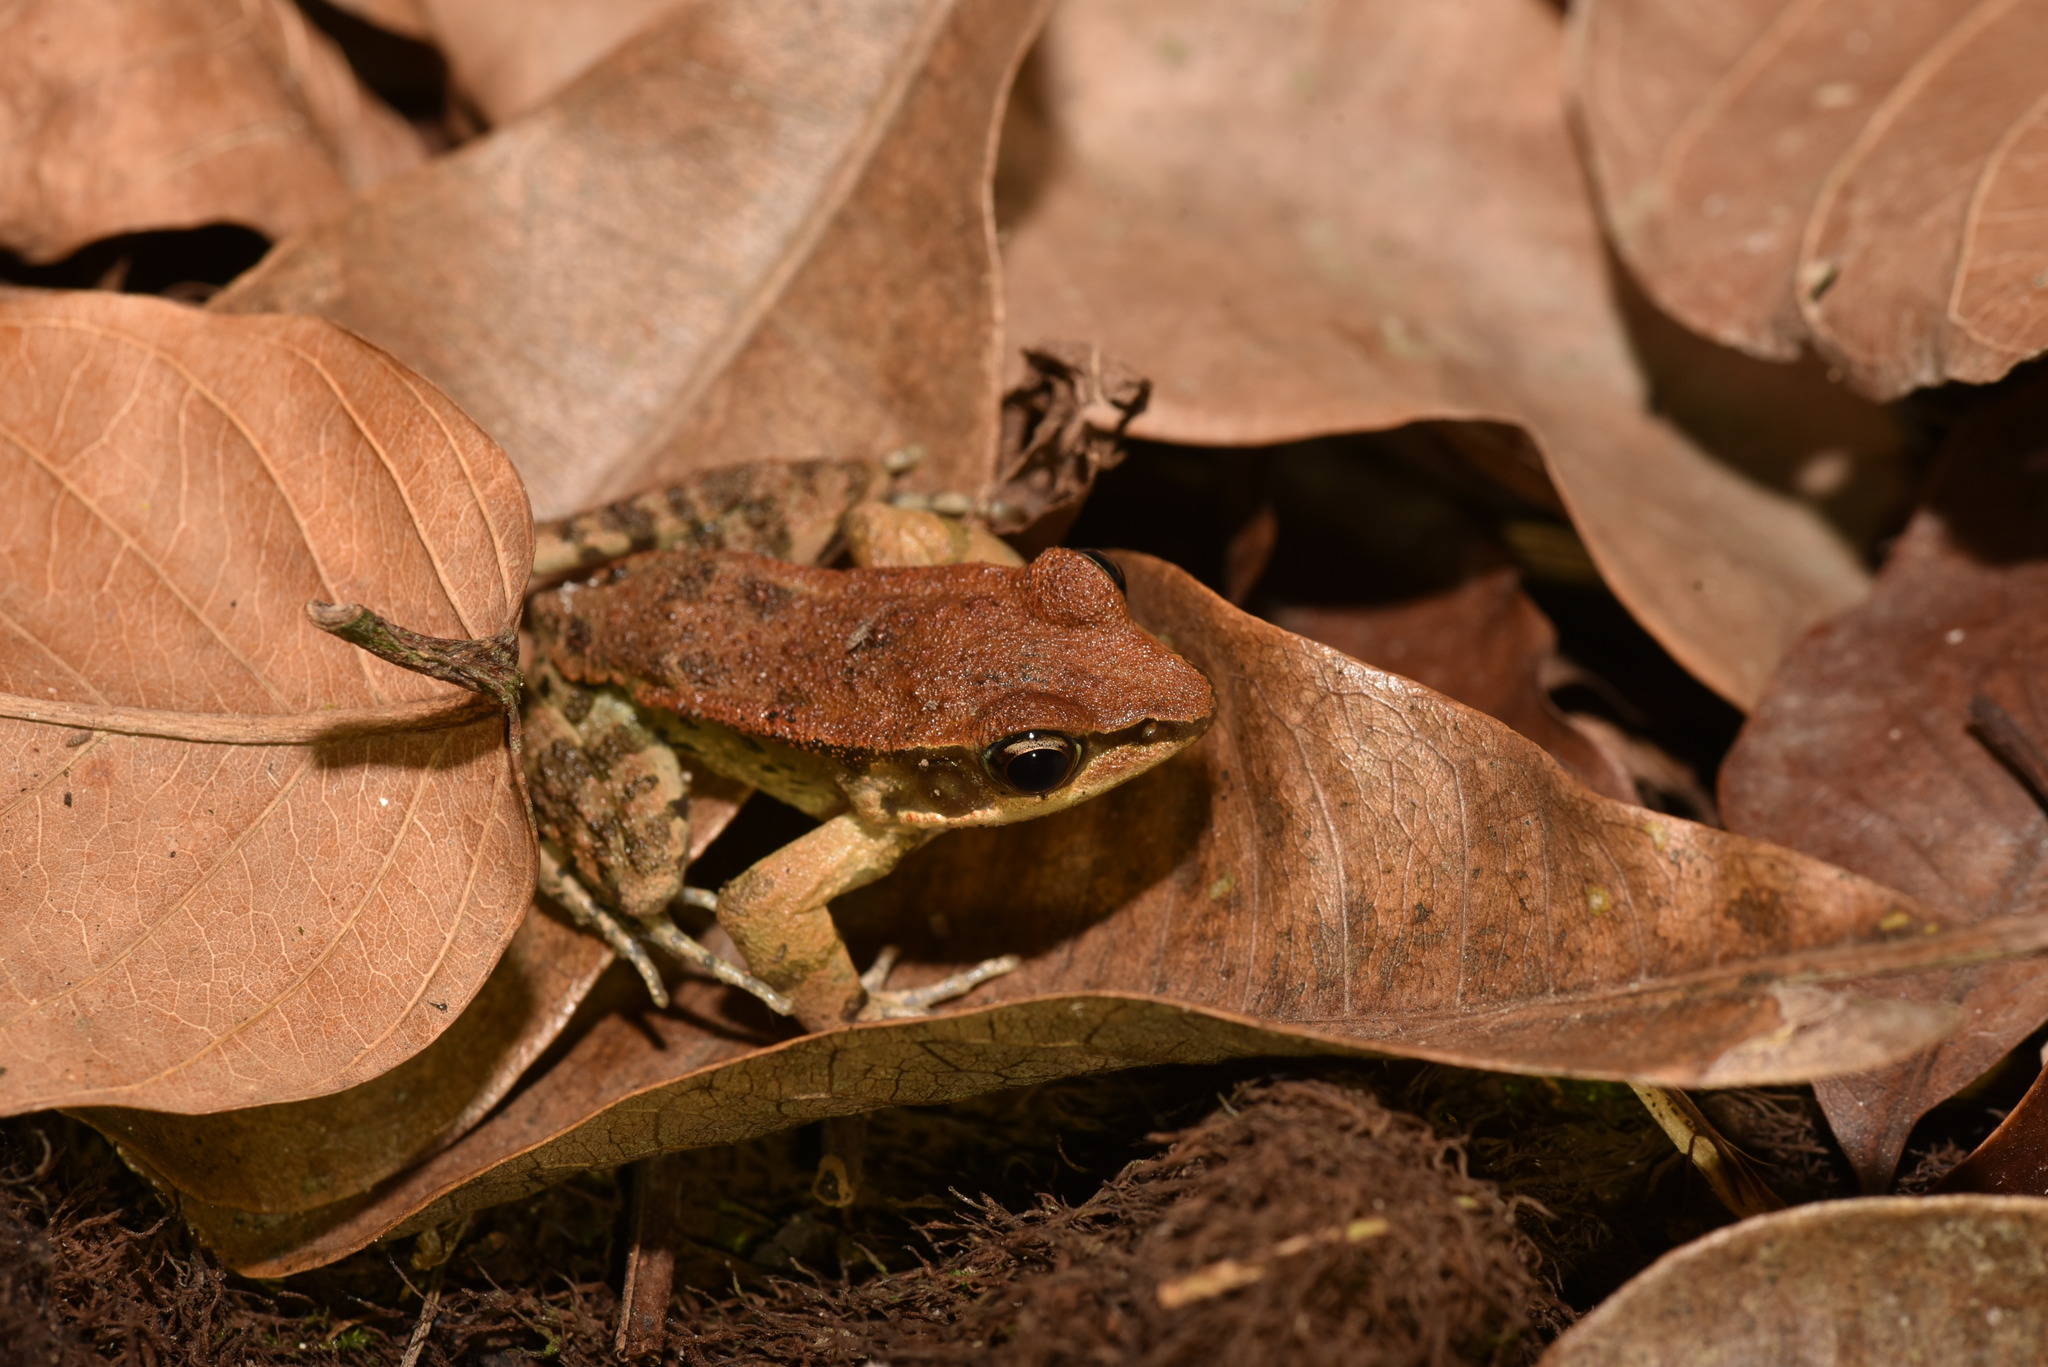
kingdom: Animalia
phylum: Chordata
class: Amphibia
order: Anura
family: Ranidae
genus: Hylarana
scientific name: Hylarana latouchii
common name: Broad-folded frog
